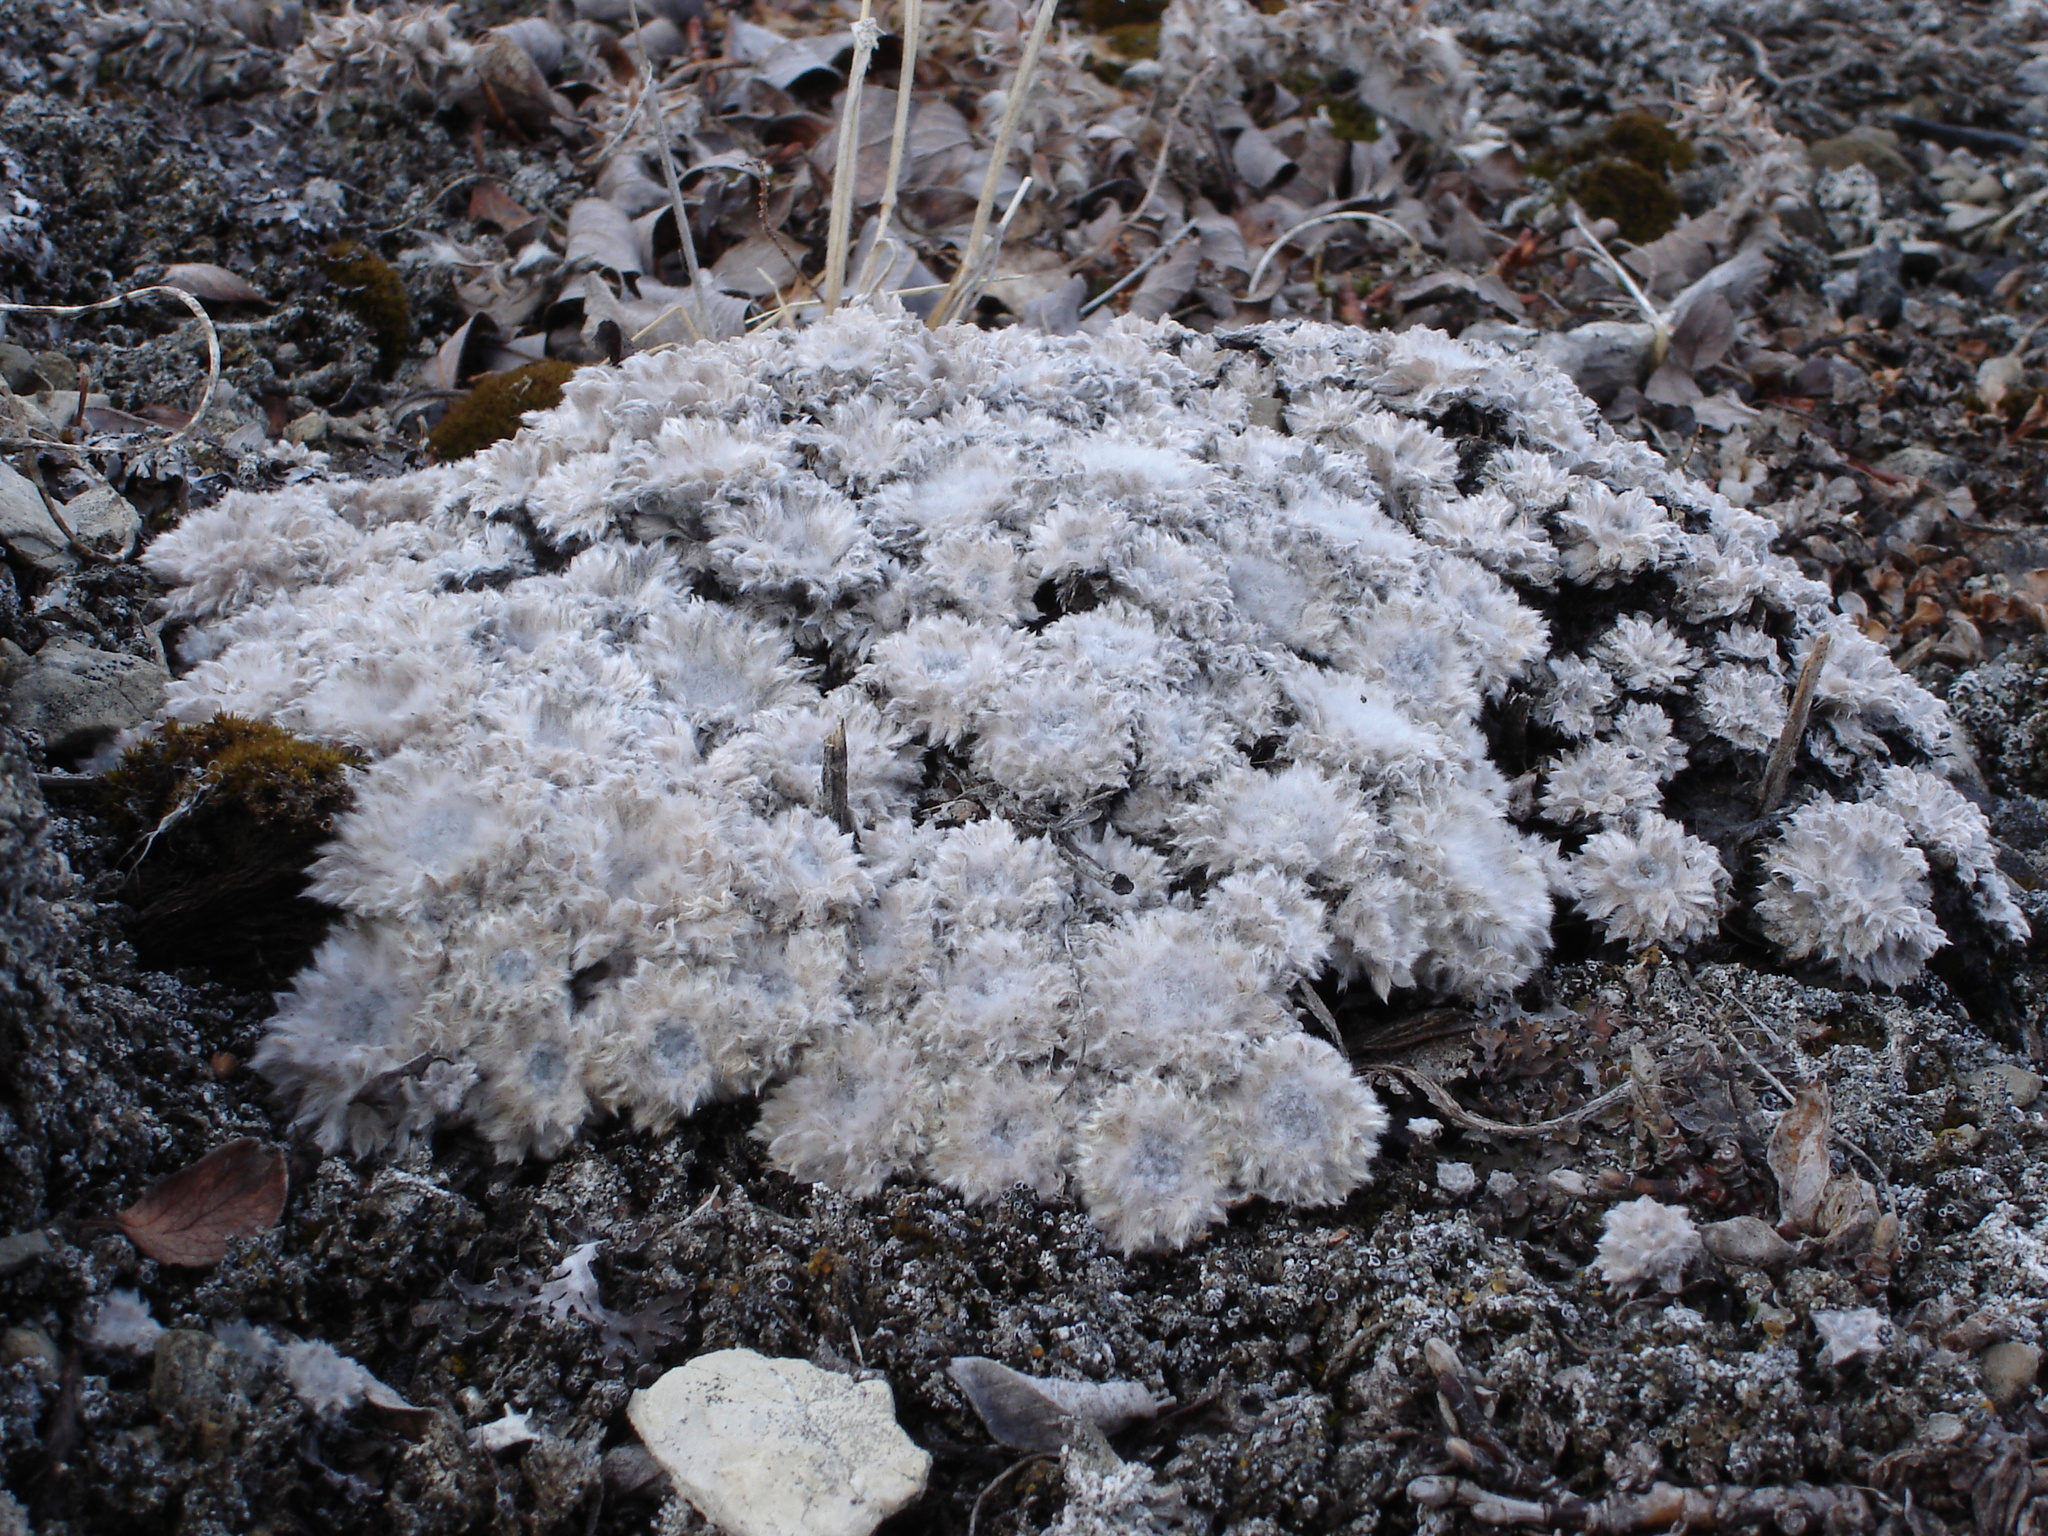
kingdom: Plantae
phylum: Tracheophyta
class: Magnoliopsida
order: Asterales
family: Asteraceae
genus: Artemisia
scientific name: Artemisia senjavinensis
